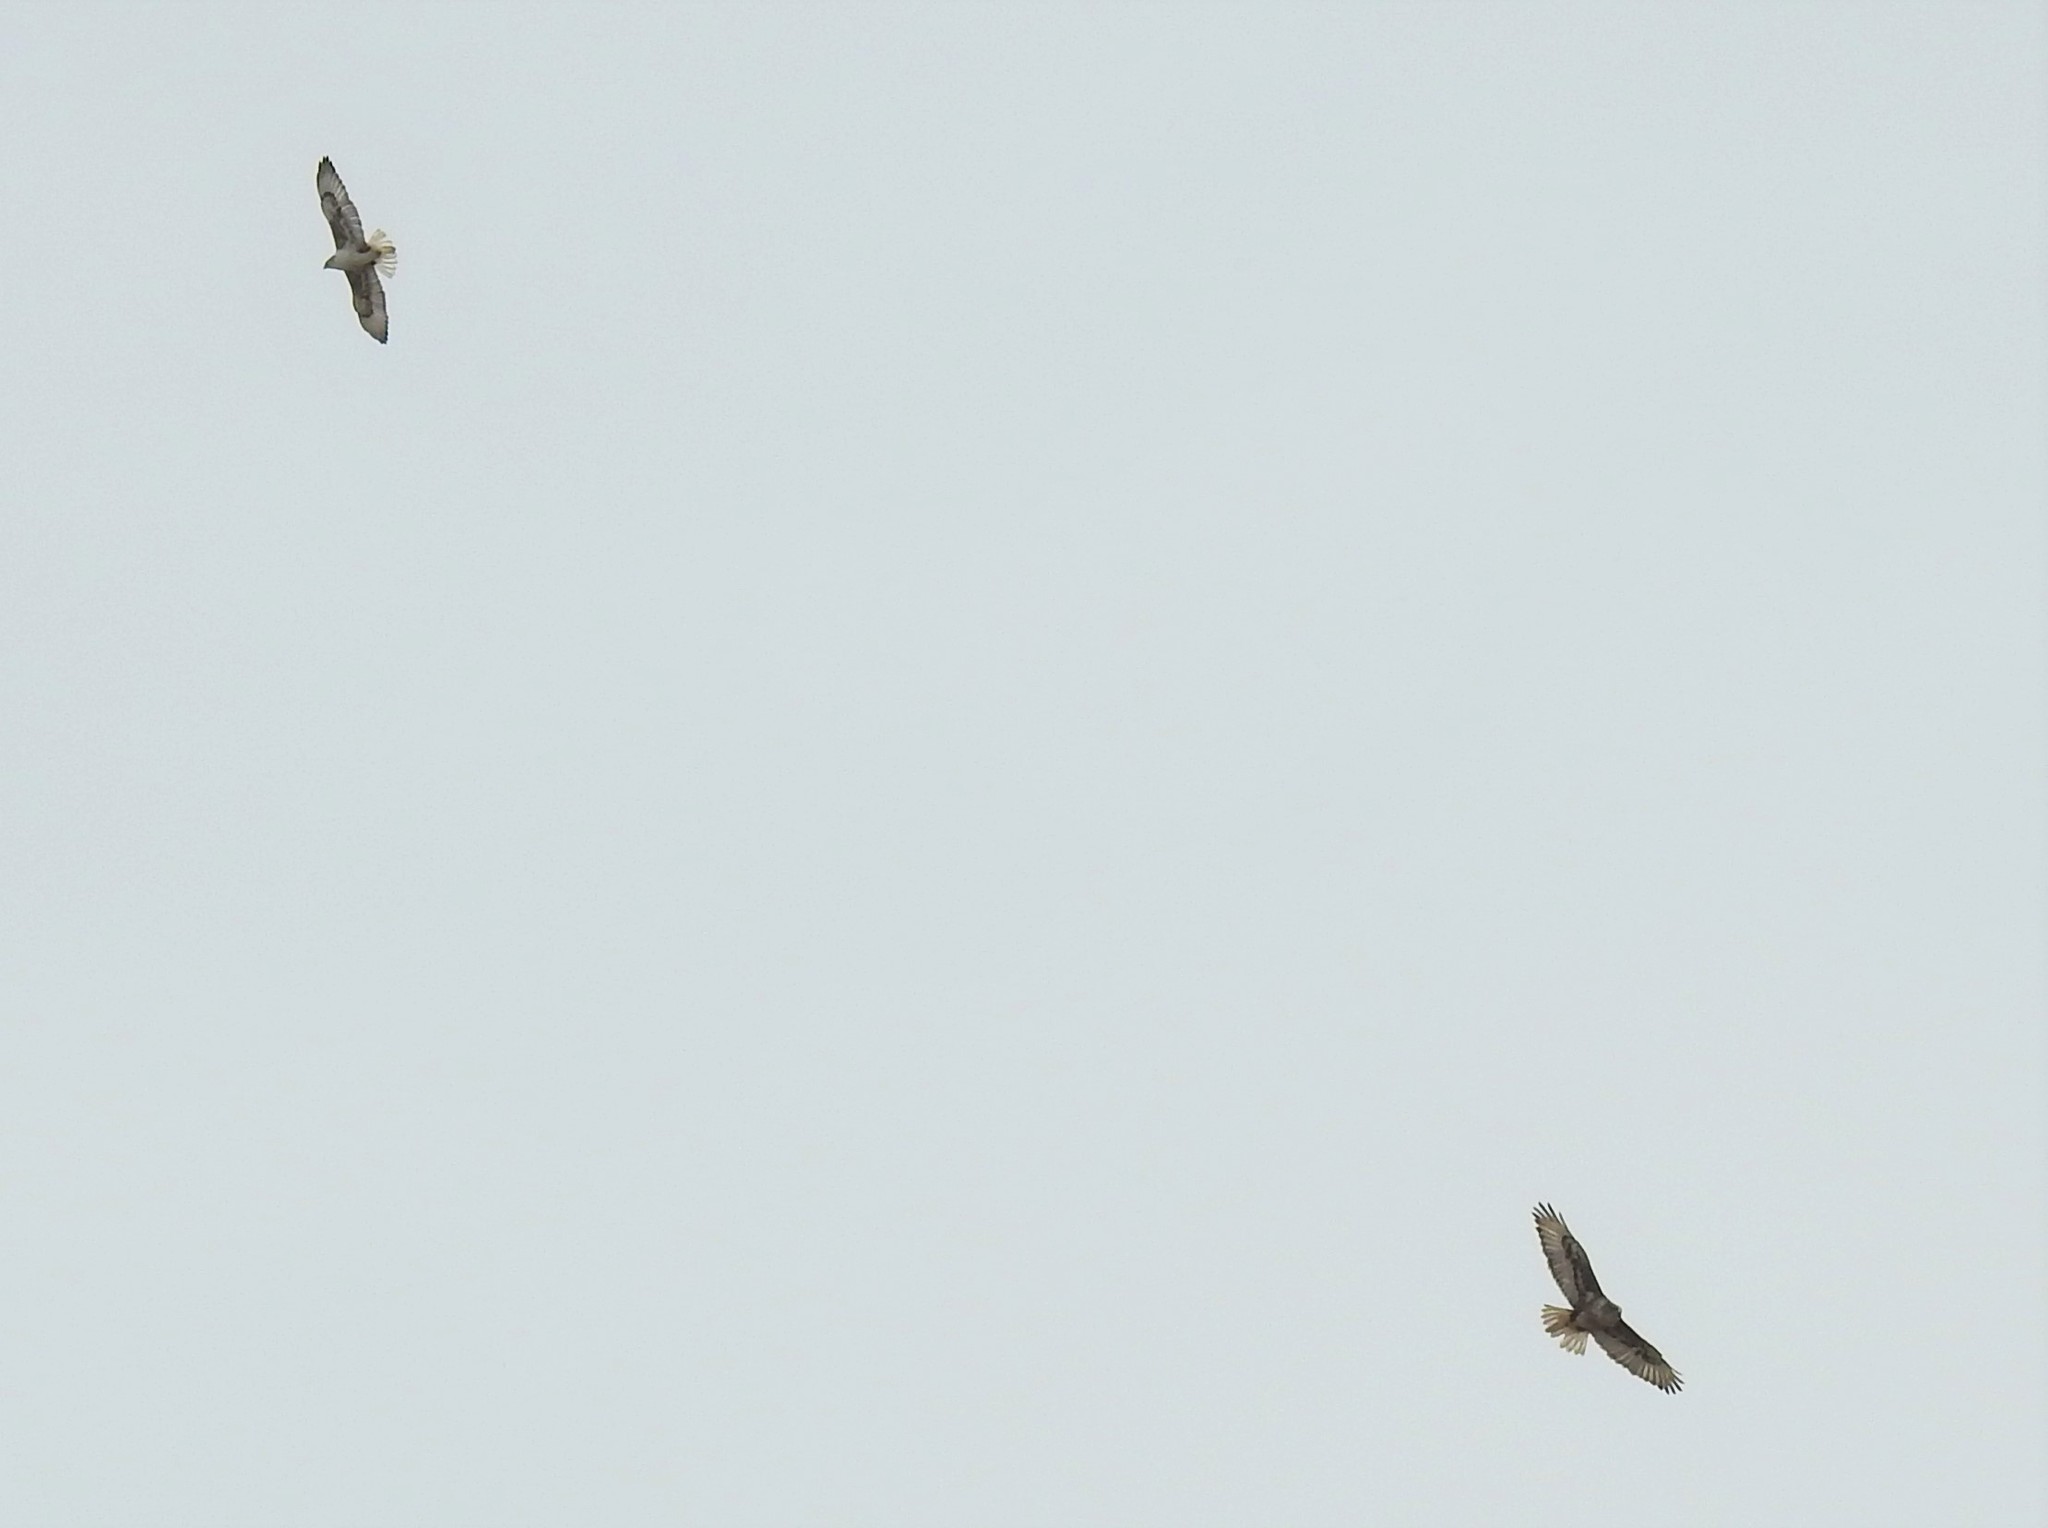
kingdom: Animalia
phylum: Chordata
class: Aves
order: Accipitriformes
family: Accipitridae
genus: Buteo
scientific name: Buteo regalis
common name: Ferruginous hawk
